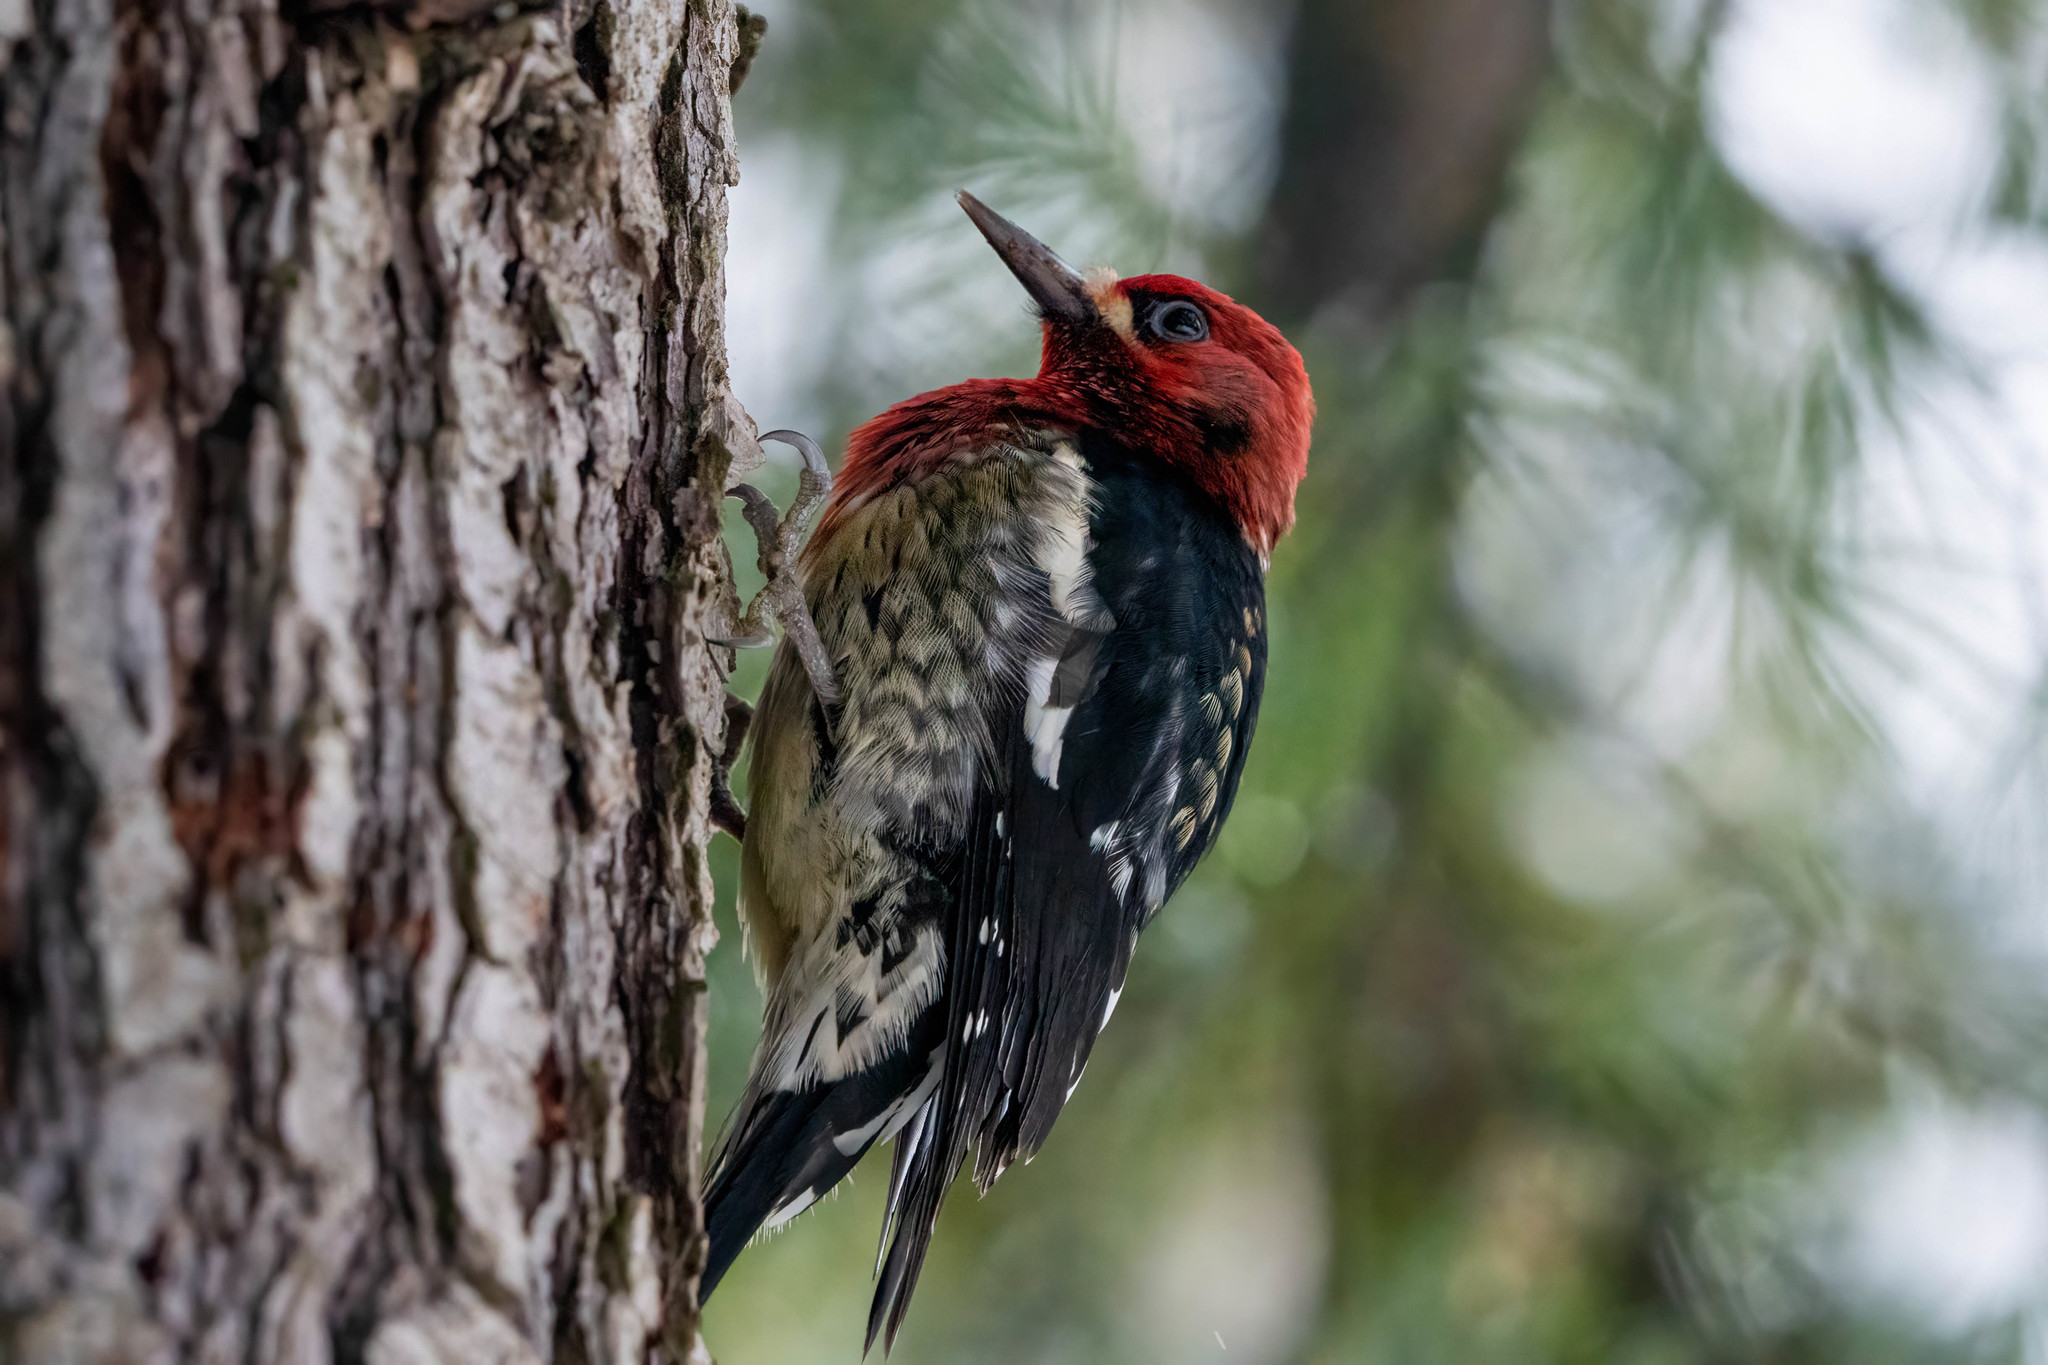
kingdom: Animalia
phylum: Chordata
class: Aves
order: Piciformes
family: Picidae
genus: Sphyrapicus
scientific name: Sphyrapicus ruber
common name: Red-breasted sapsucker
